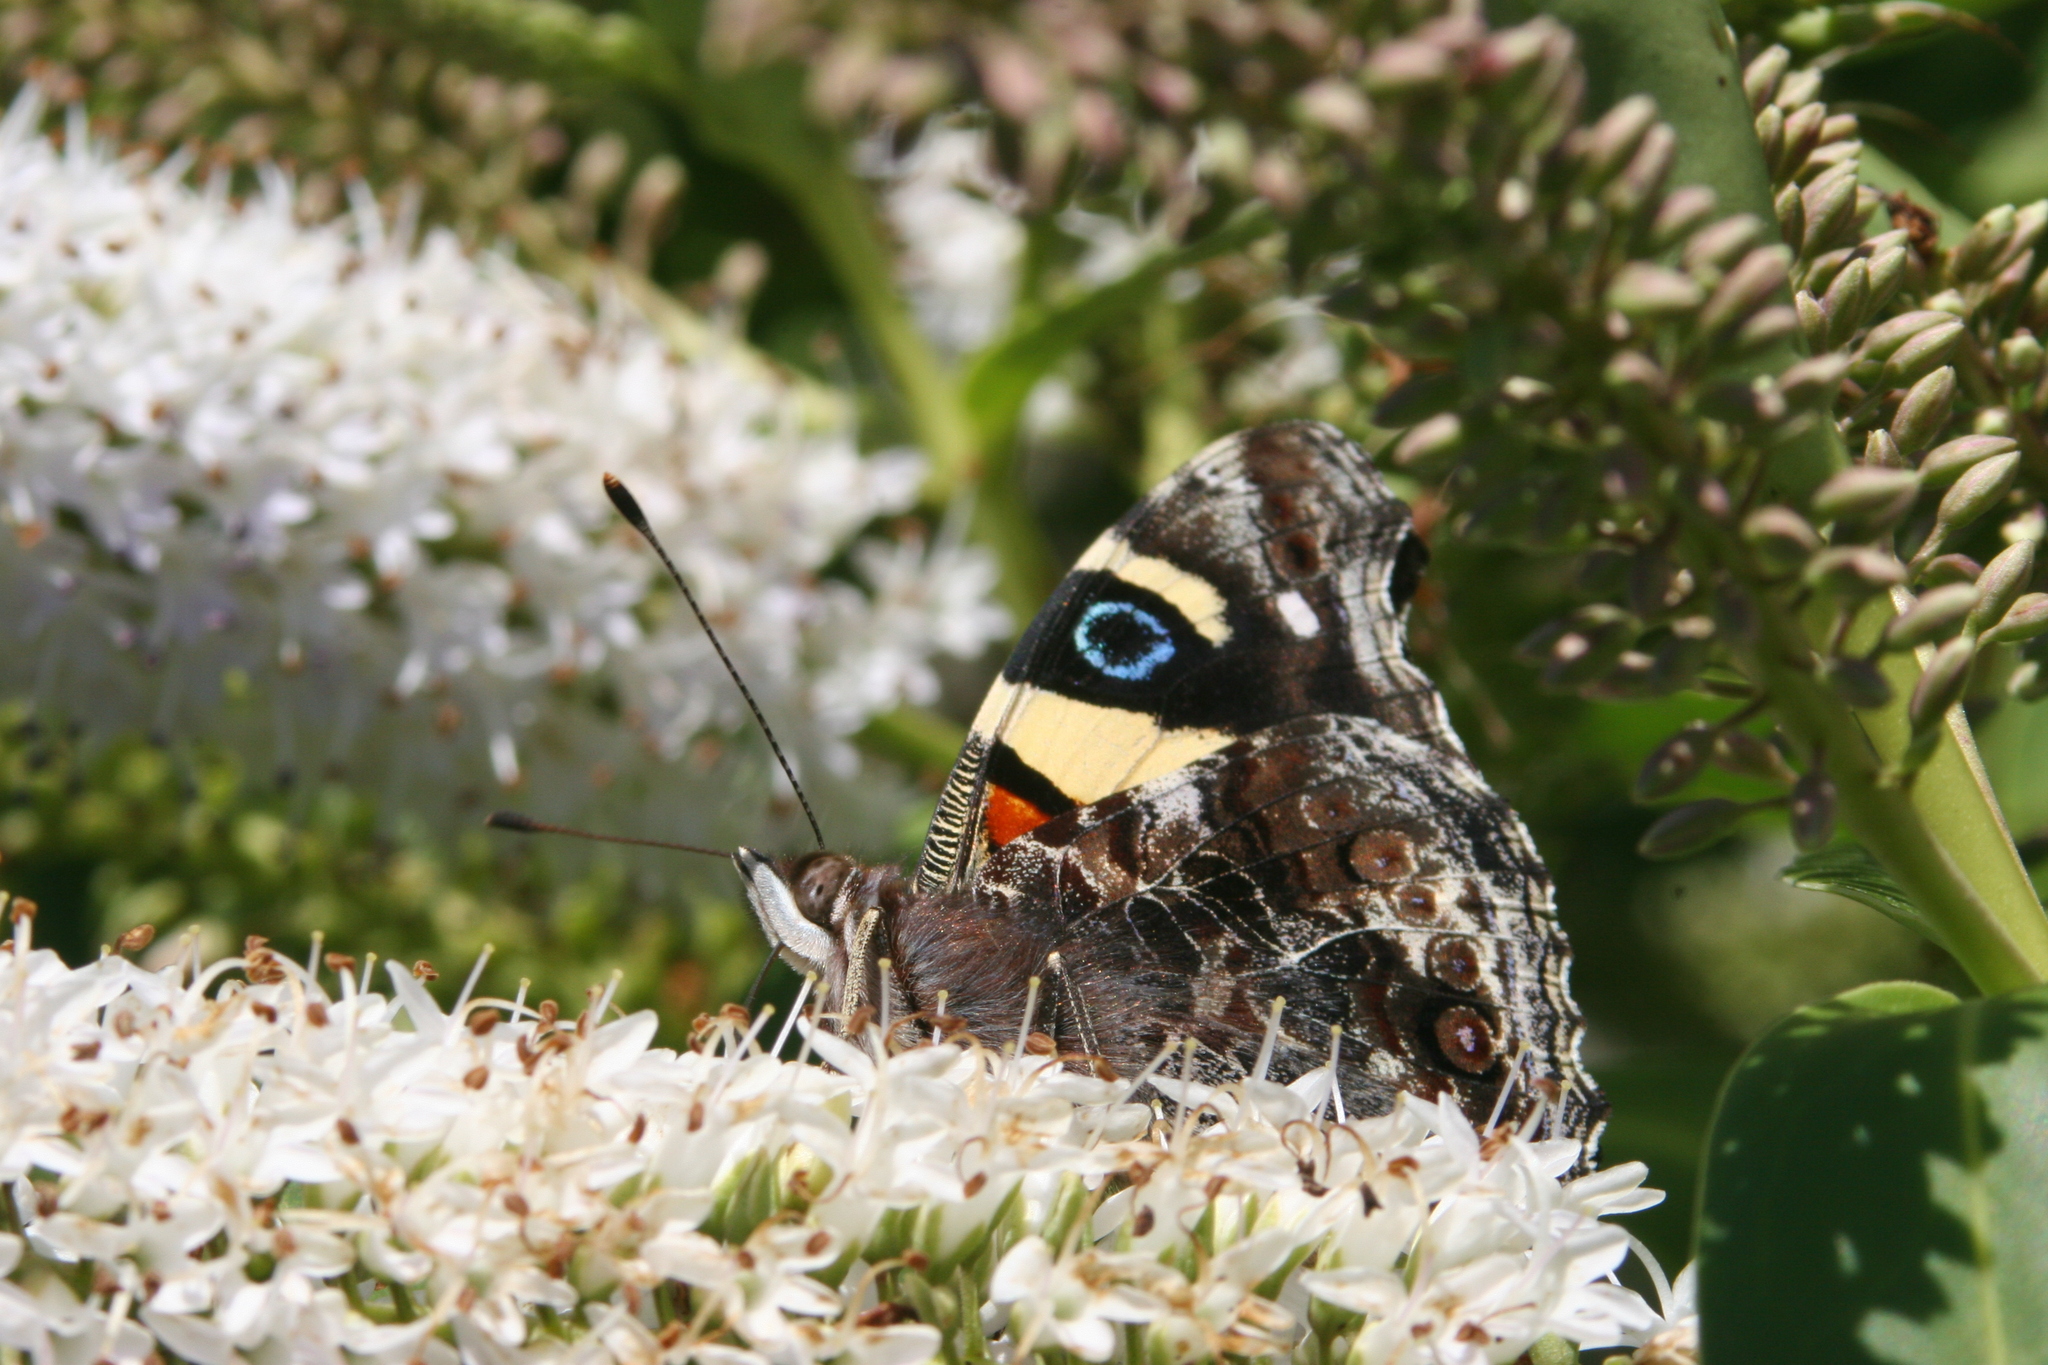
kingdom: Animalia
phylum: Arthropoda
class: Insecta
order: Lepidoptera
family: Nymphalidae
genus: Vanessa
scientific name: Vanessa itea
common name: Yellow admiral
